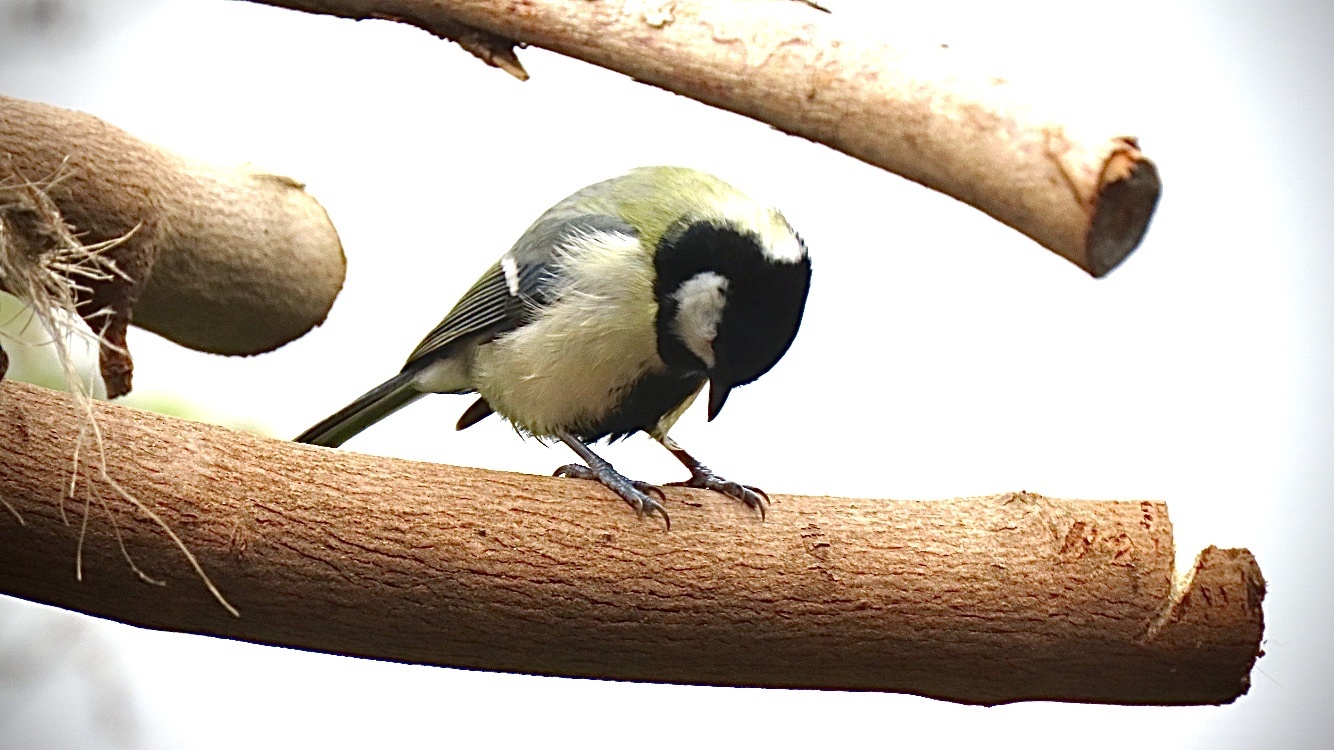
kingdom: Animalia
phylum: Chordata
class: Aves
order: Passeriformes
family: Paridae
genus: Parus
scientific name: Parus major
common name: Great tit
